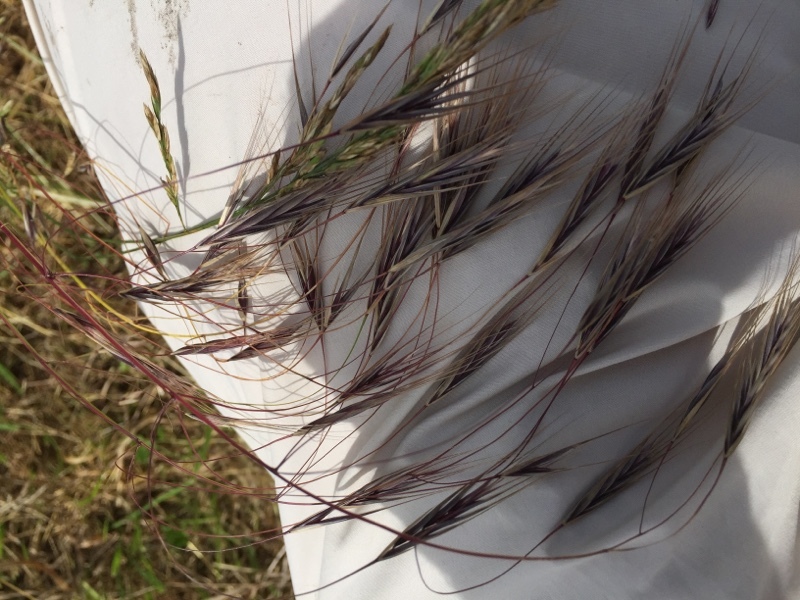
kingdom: Plantae
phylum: Tracheophyta
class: Liliopsida
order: Poales
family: Poaceae
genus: Bromus
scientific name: Bromus tectorum
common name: Cheatgrass
